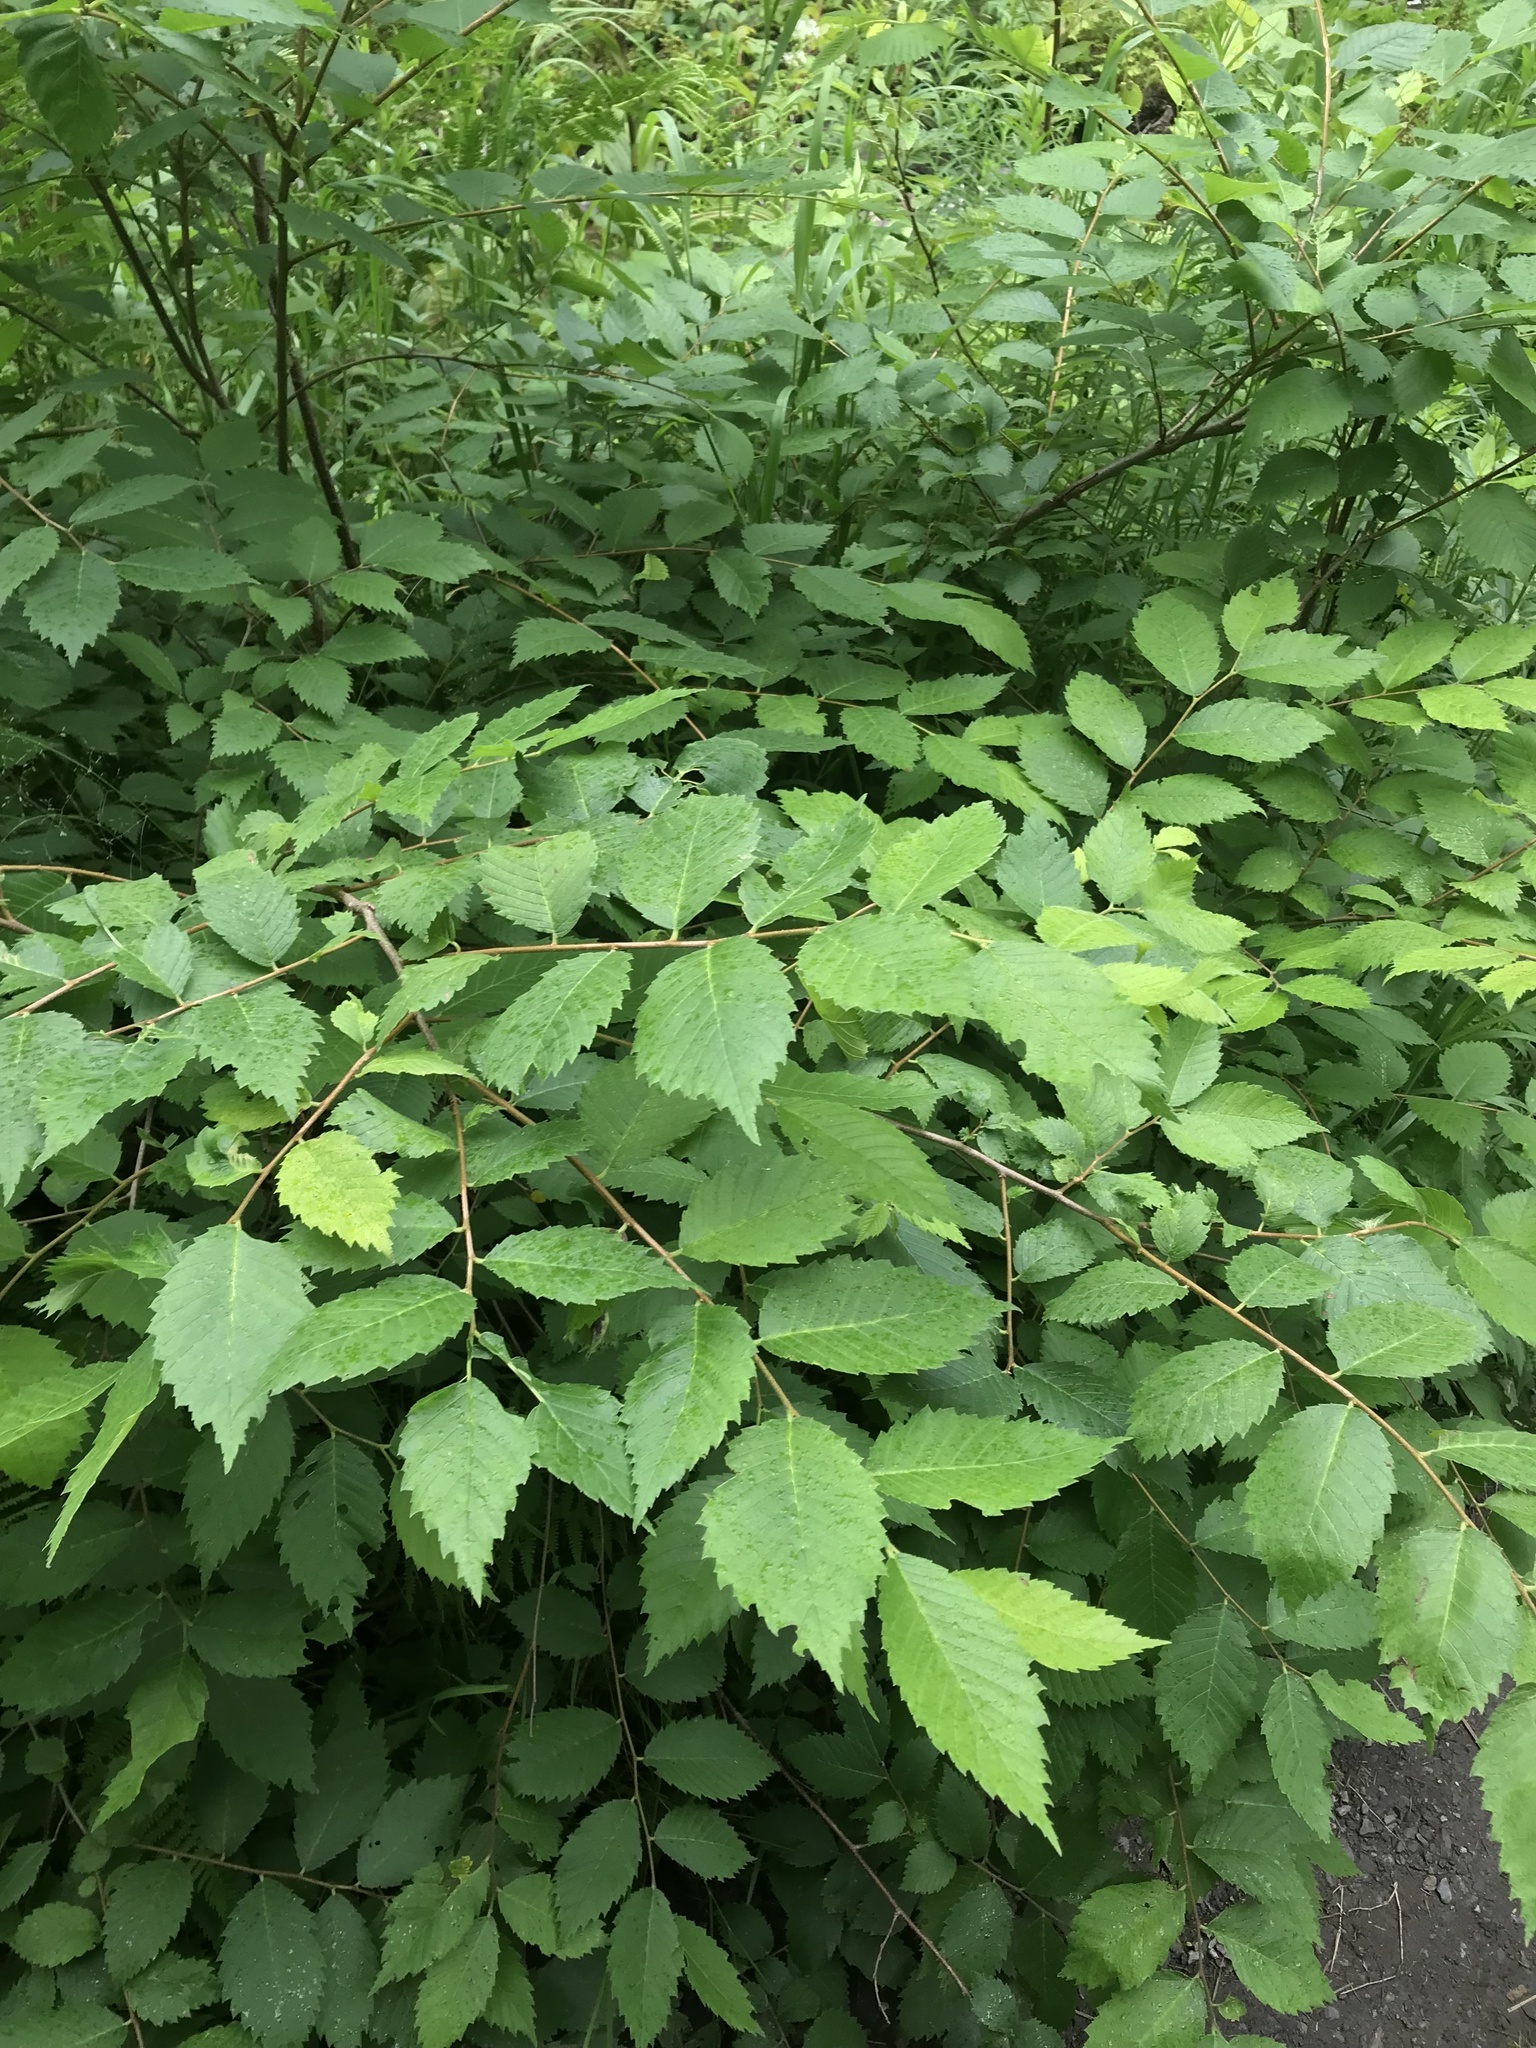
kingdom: Plantae
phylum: Tracheophyta
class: Magnoliopsida
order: Rosales
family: Ulmaceae
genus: Ulmus
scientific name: Ulmus americana
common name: American elm
